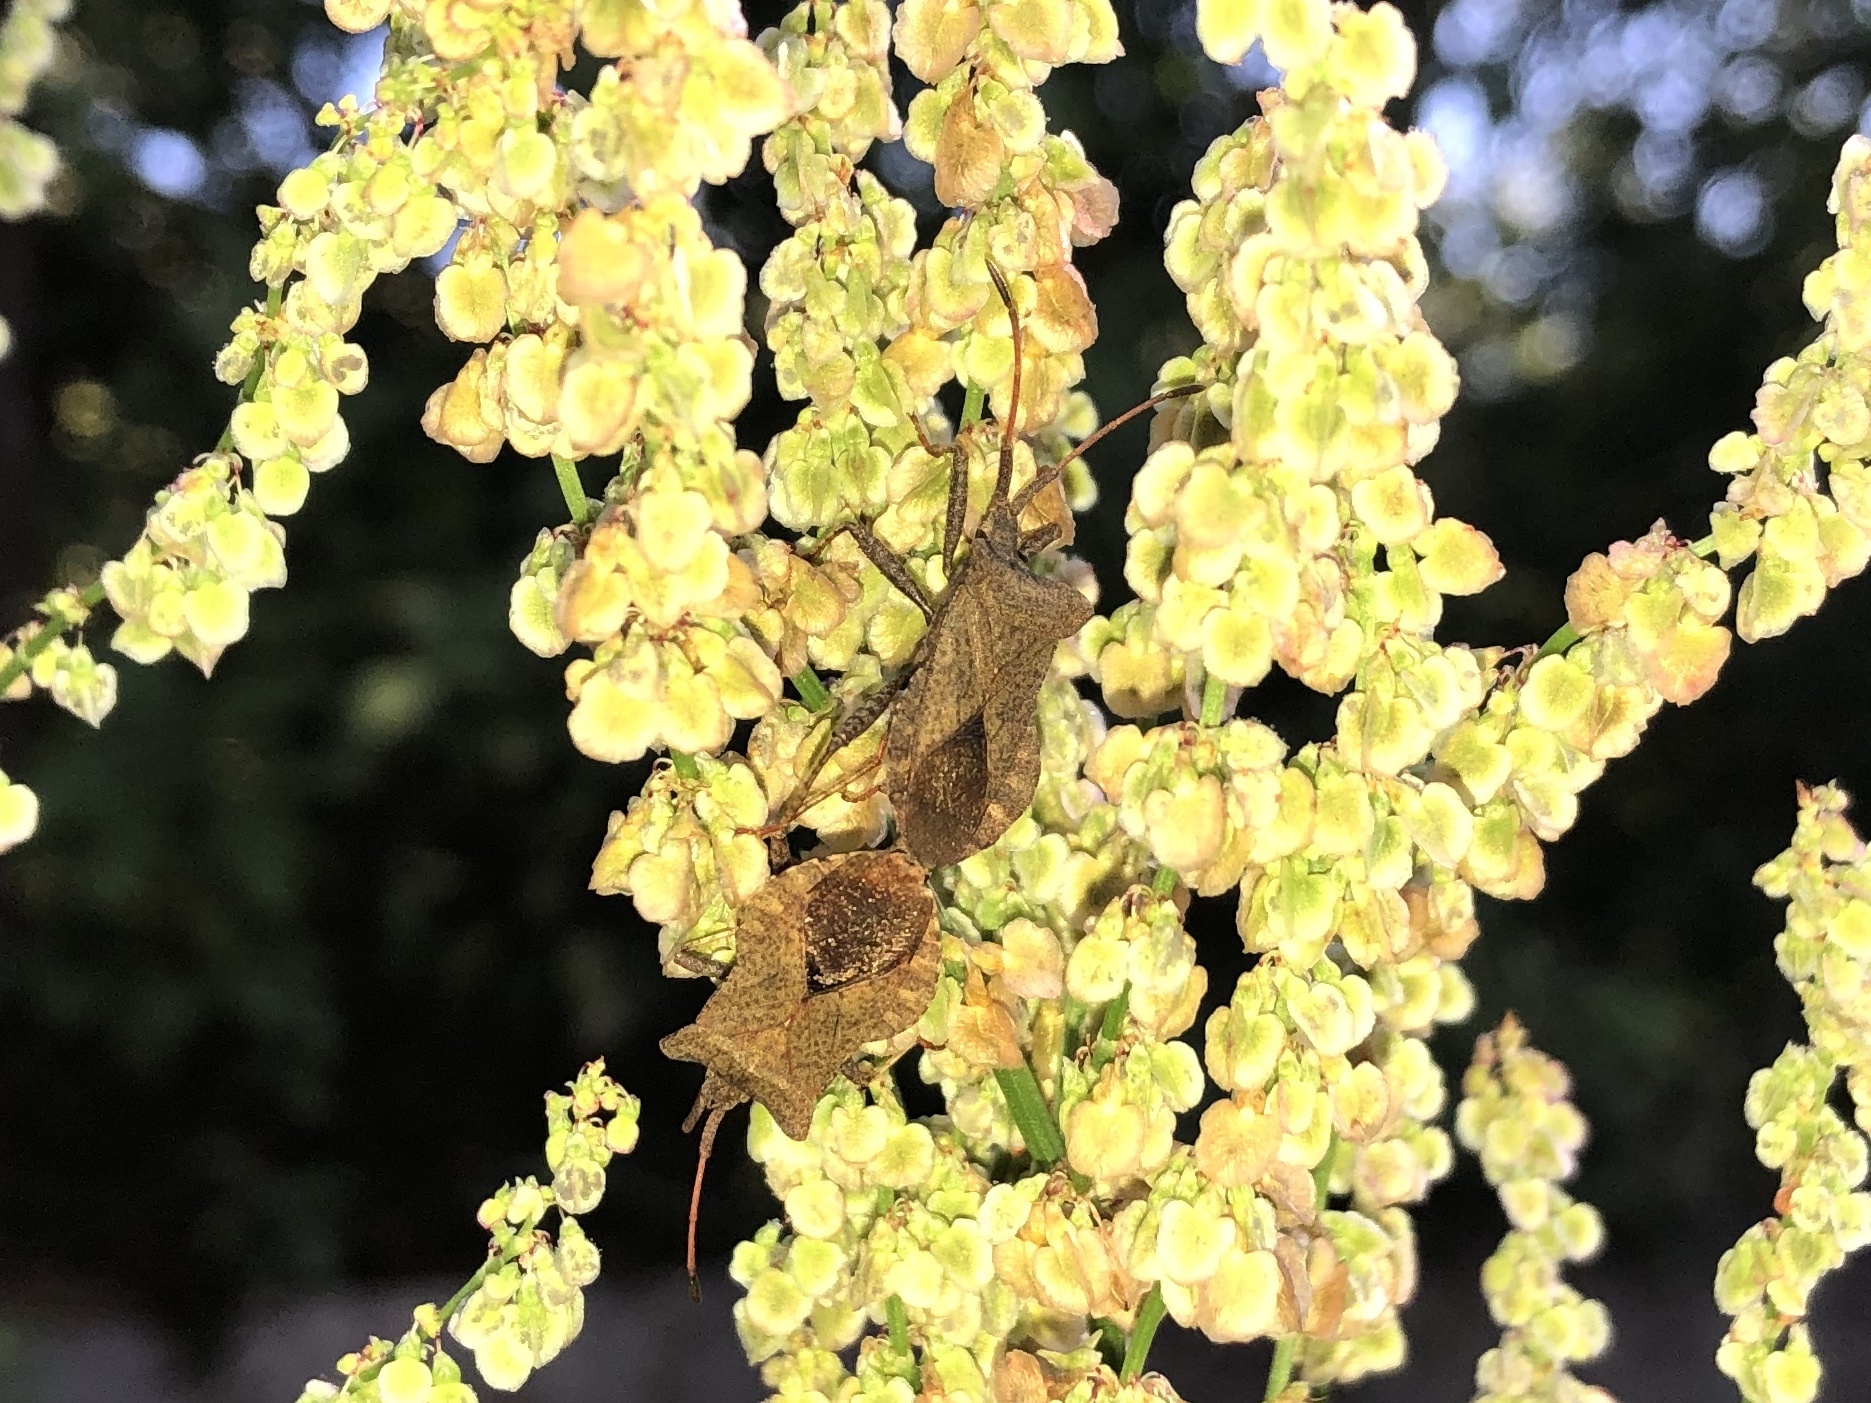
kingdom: Animalia
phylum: Arthropoda
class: Insecta
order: Hemiptera
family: Coreidae
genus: Coreus
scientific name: Coreus marginatus
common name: Dock bug
